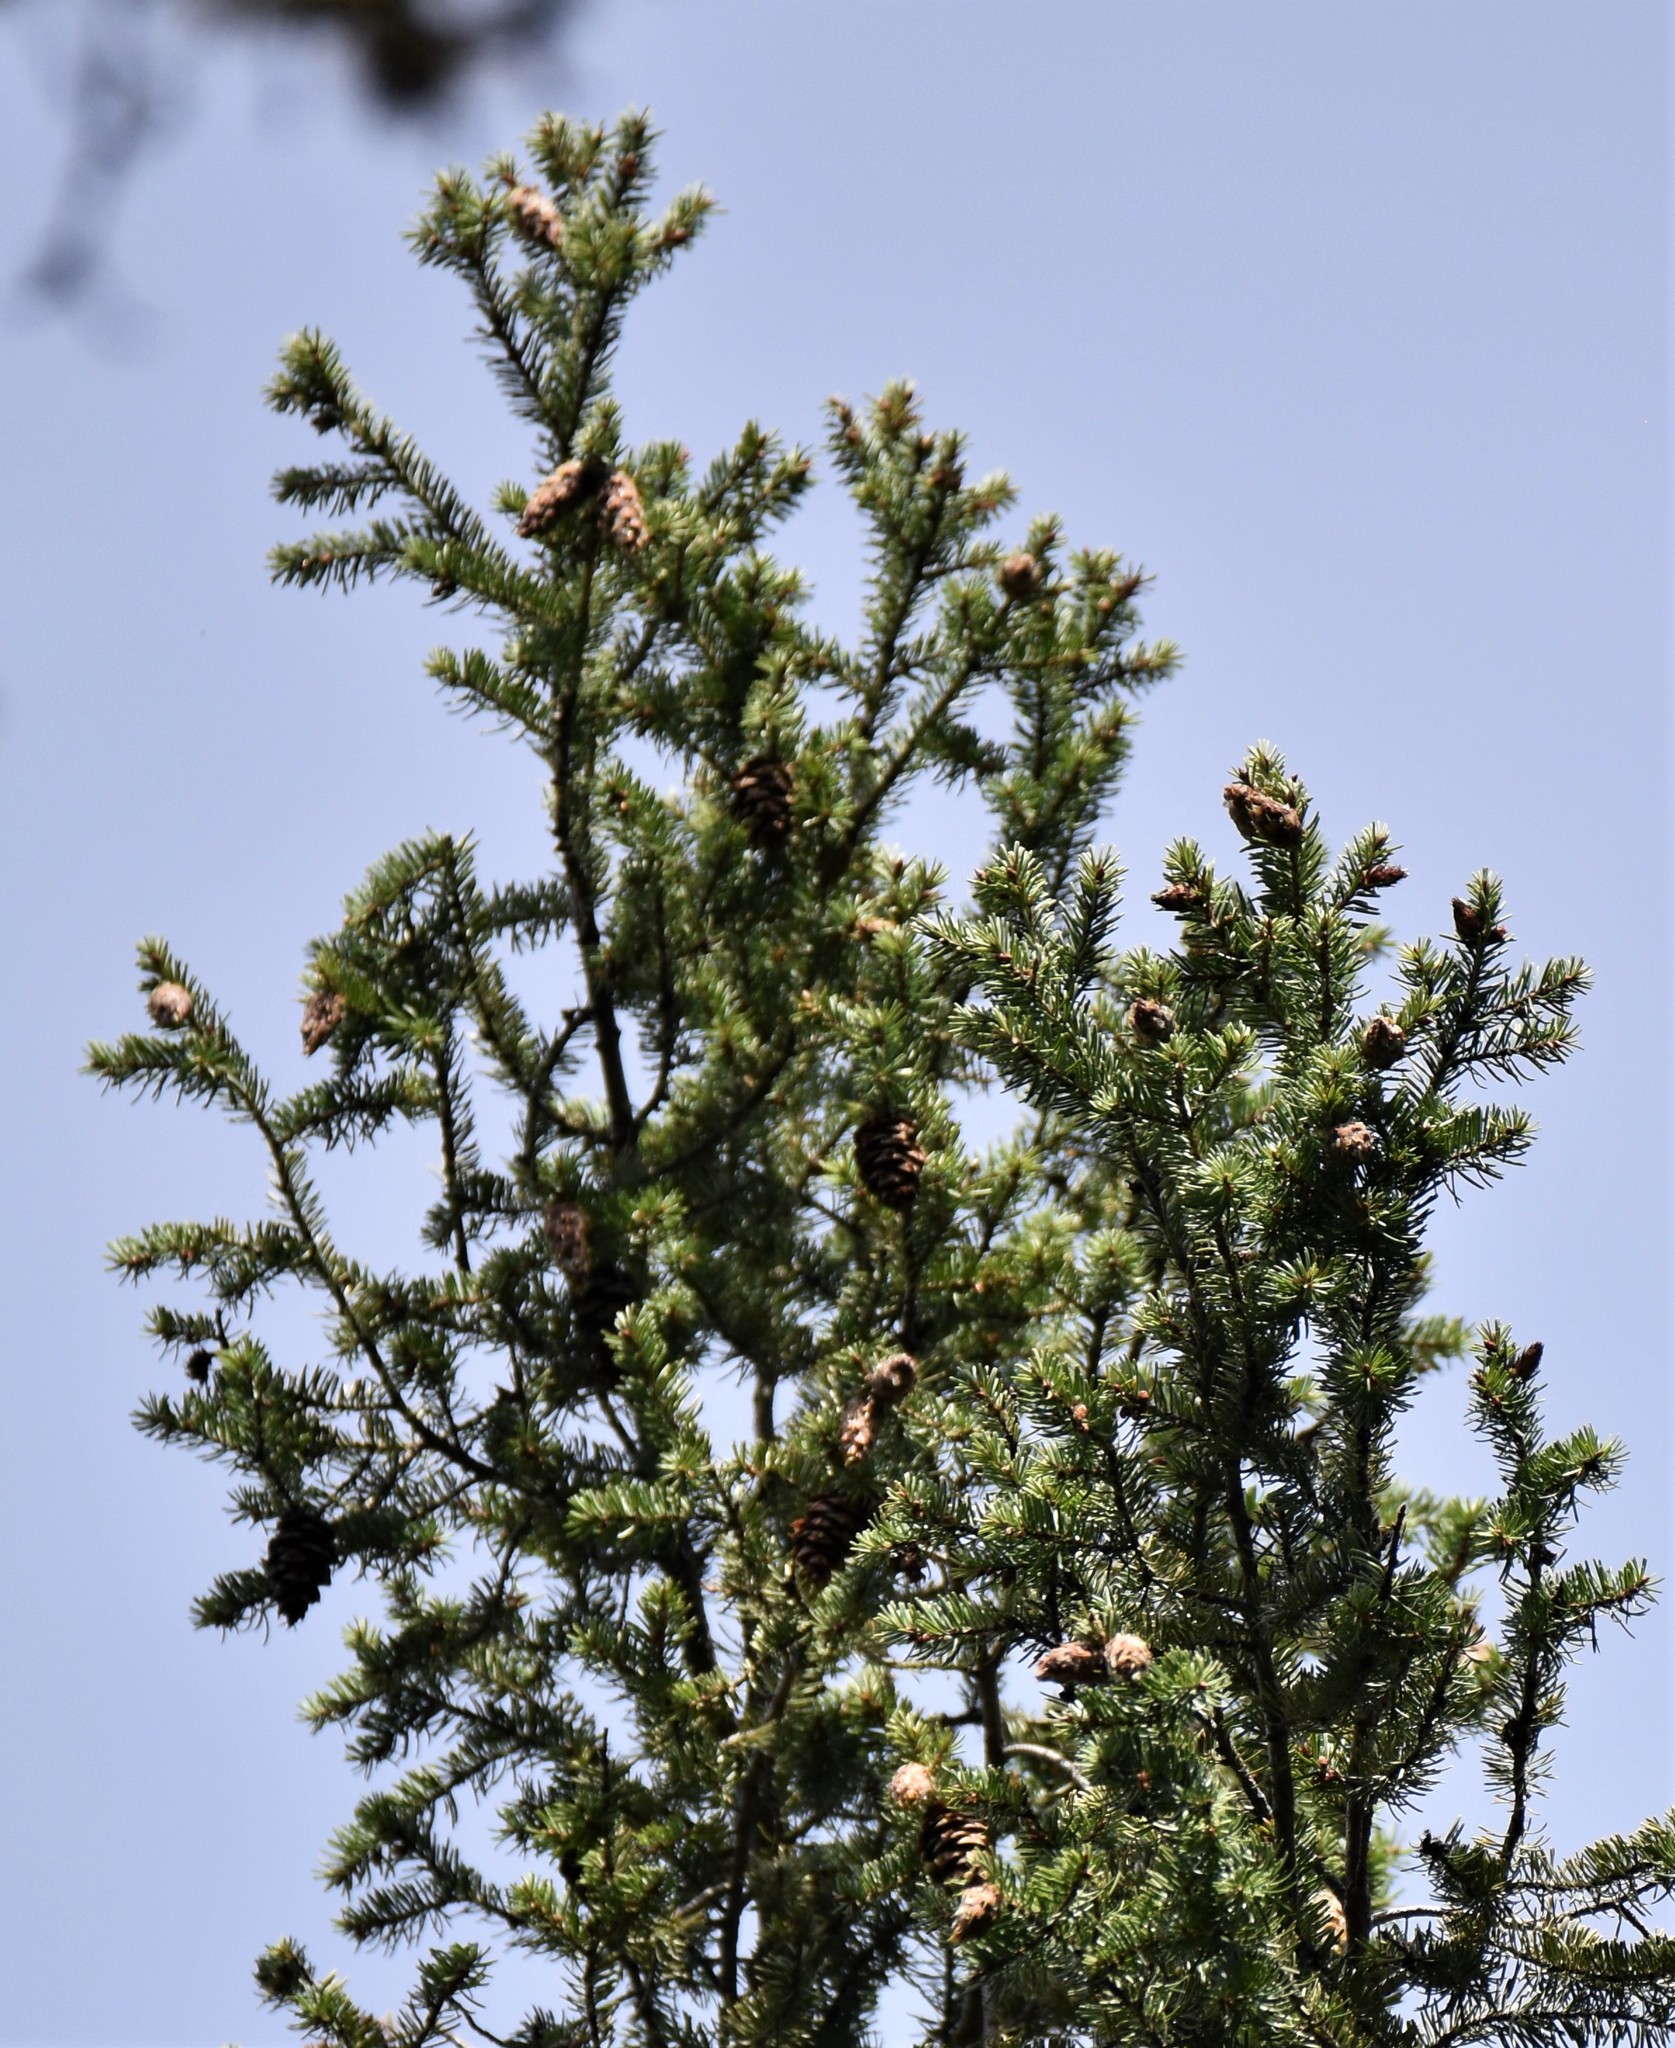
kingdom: Plantae
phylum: Tracheophyta
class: Pinopsida
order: Pinales
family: Pinaceae
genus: Pseudotsuga
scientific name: Pseudotsuga menziesii
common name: Douglas fir
